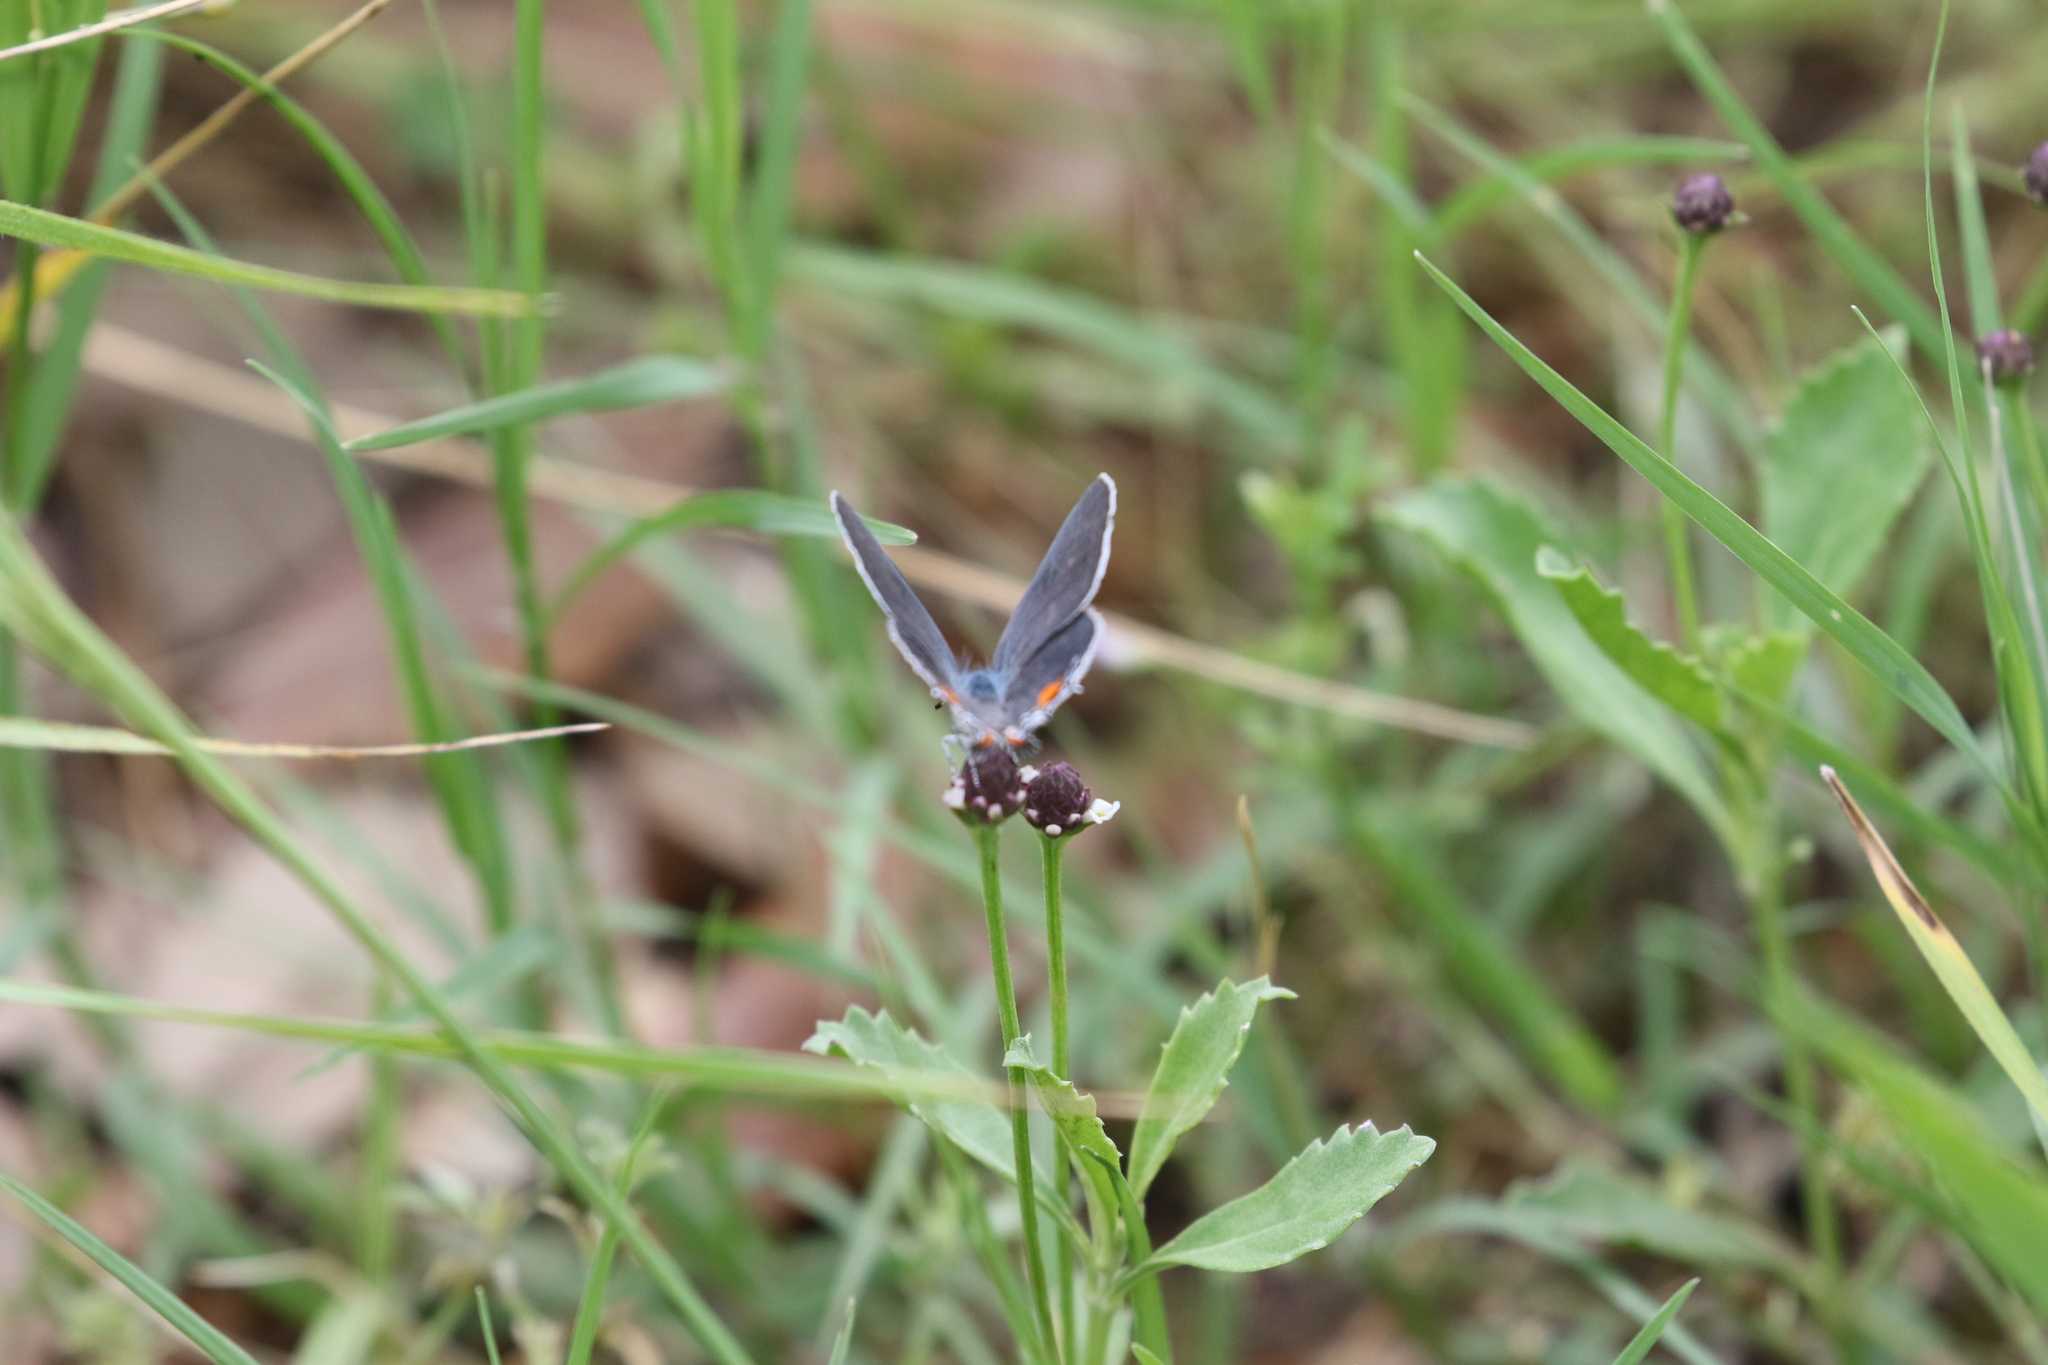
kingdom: Animalia
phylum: Arthropoda
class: Insecta
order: Lepidoptera
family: Lycaenidae
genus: Strymon
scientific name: Strymon melinus
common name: Gray hairstreak
